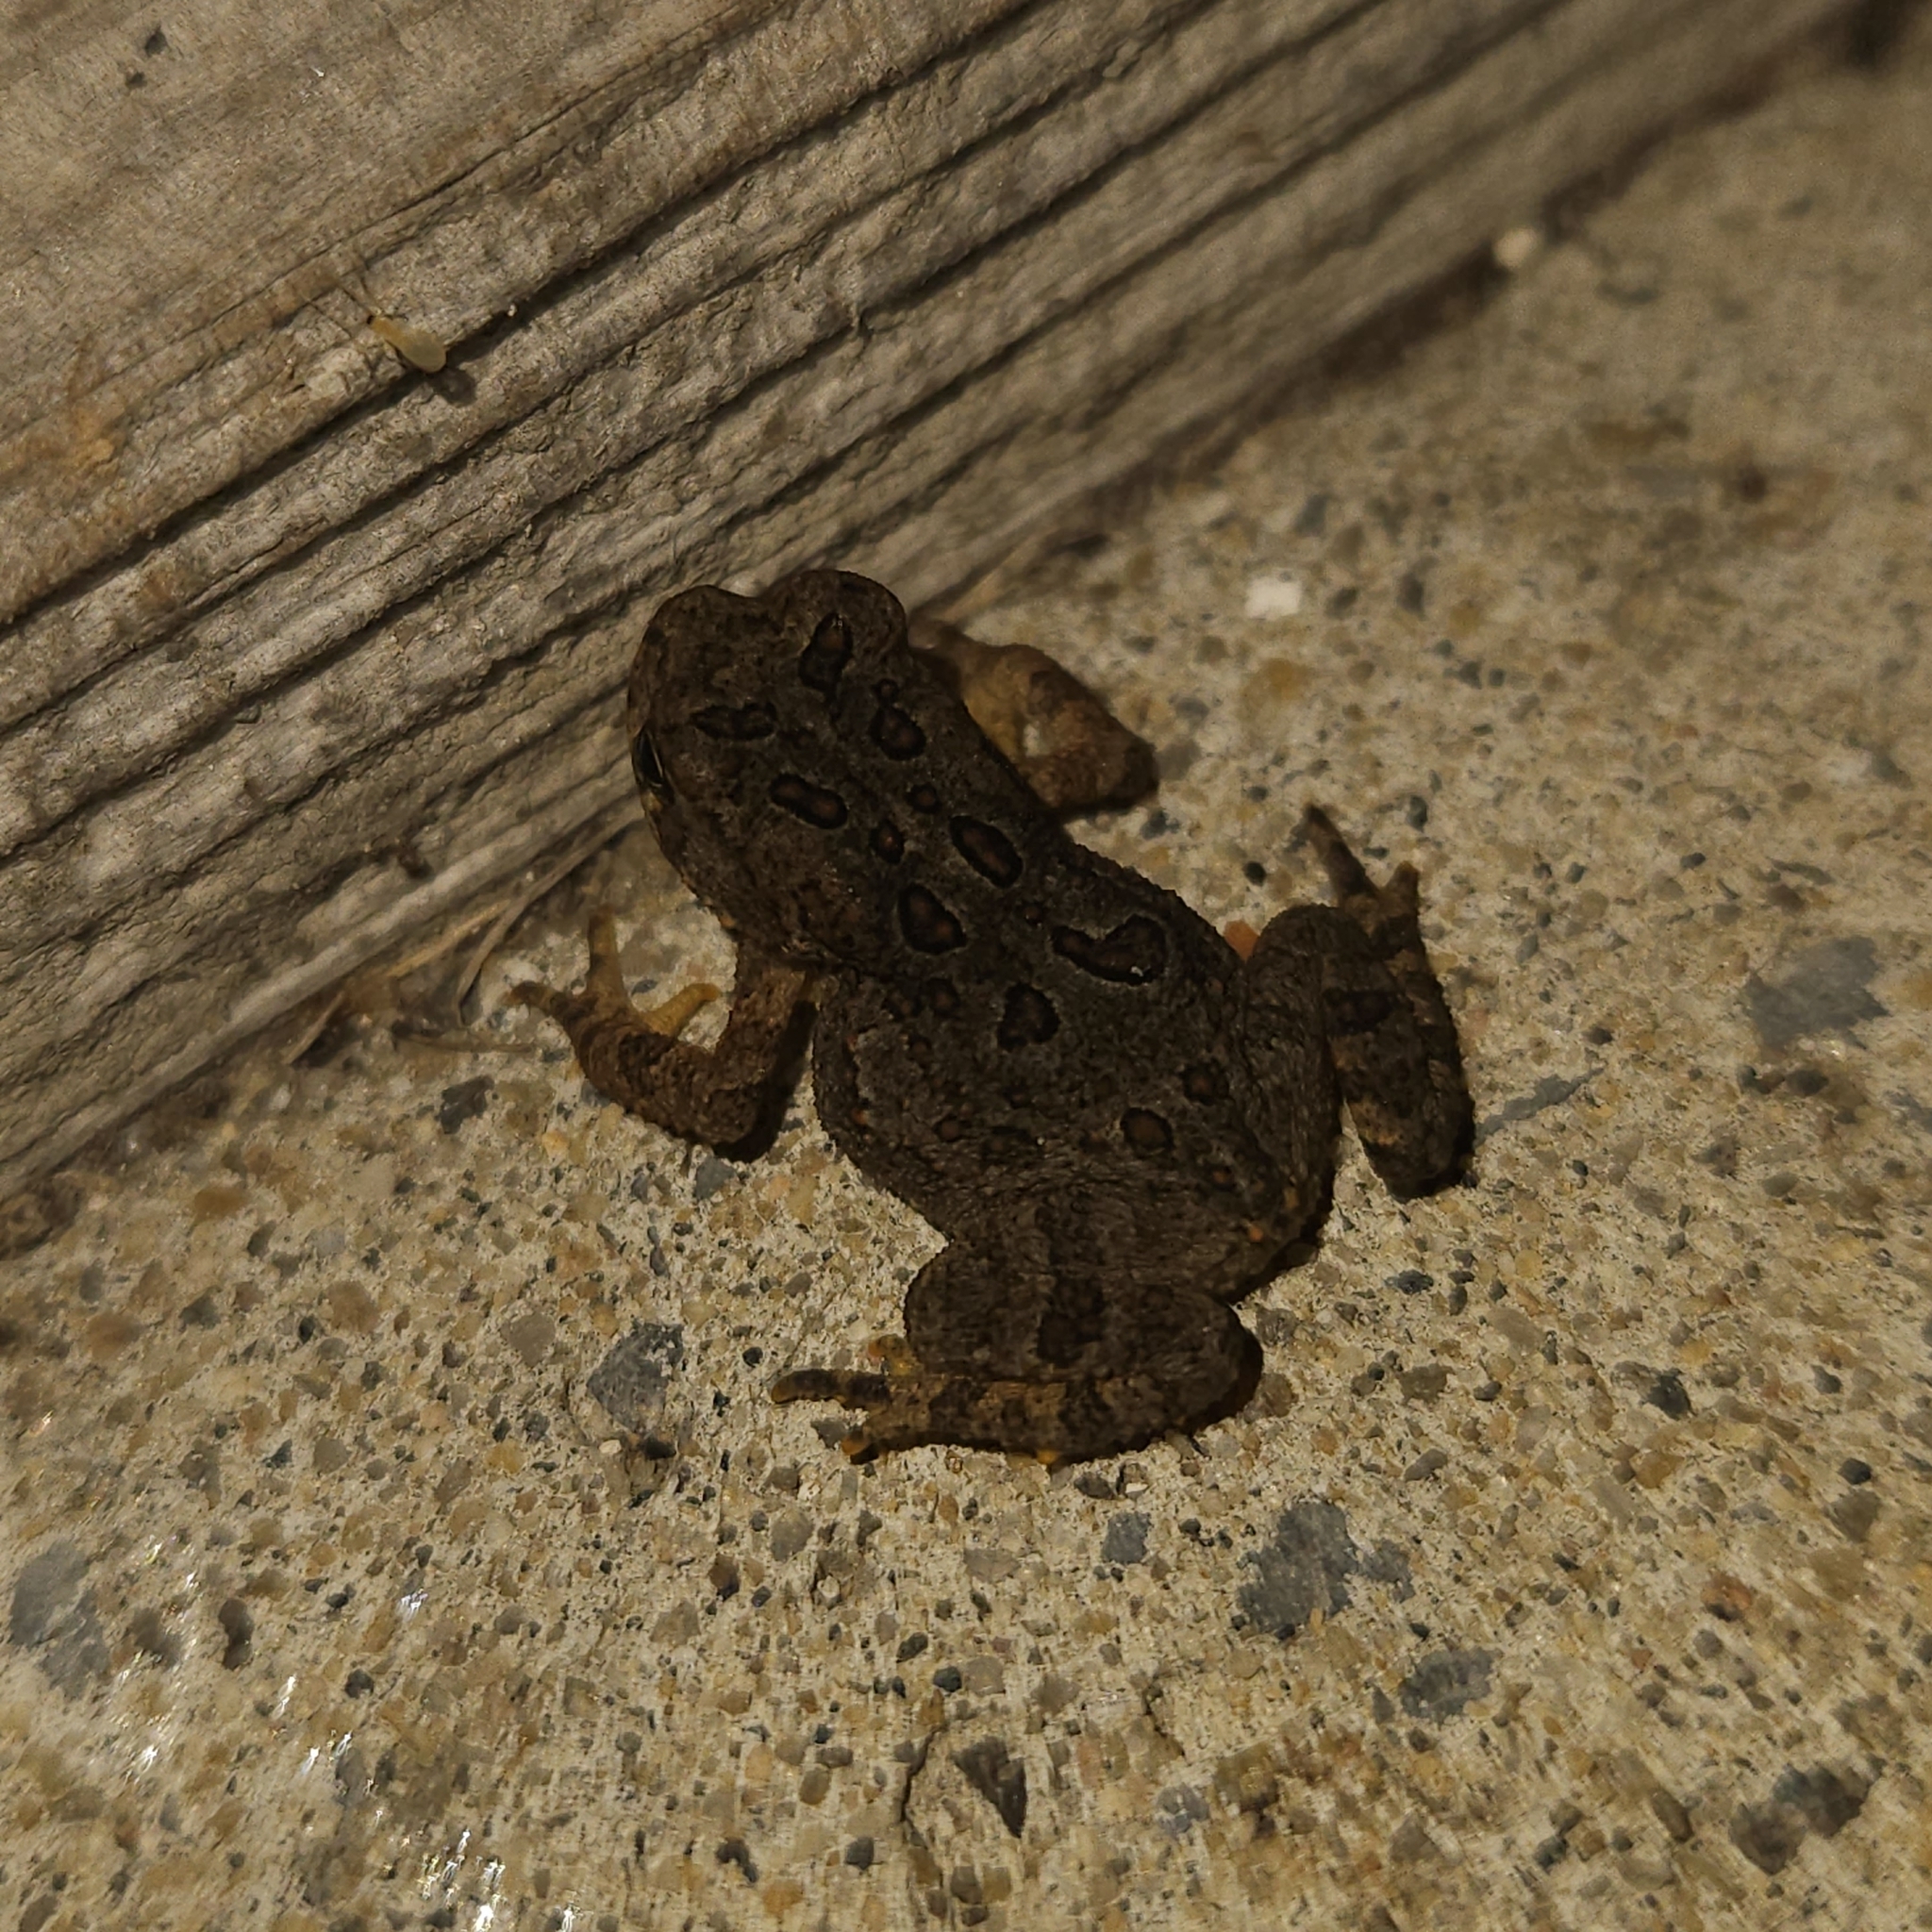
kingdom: Animalia
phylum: Chordata
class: Amphibia
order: Anura
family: Bufonidae
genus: Anaxyrus
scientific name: Anaxyrus americanus
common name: American toad
